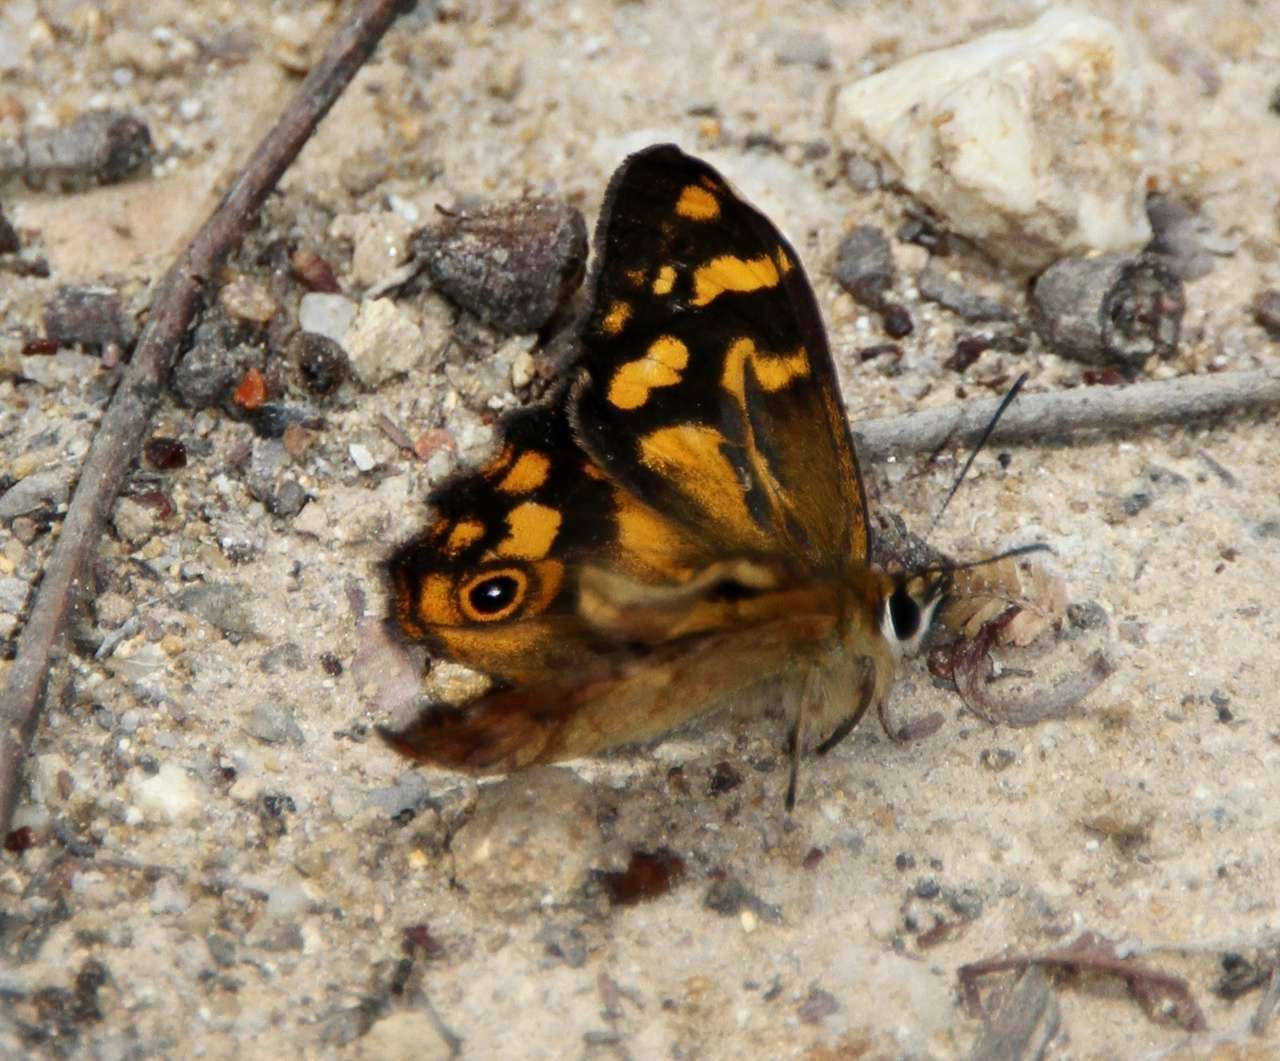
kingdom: Animalia
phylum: Arthropoda
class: Insecta
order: Lepidoptera
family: Nymphalidae
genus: Heteronympha
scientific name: Heteronympha banksii
